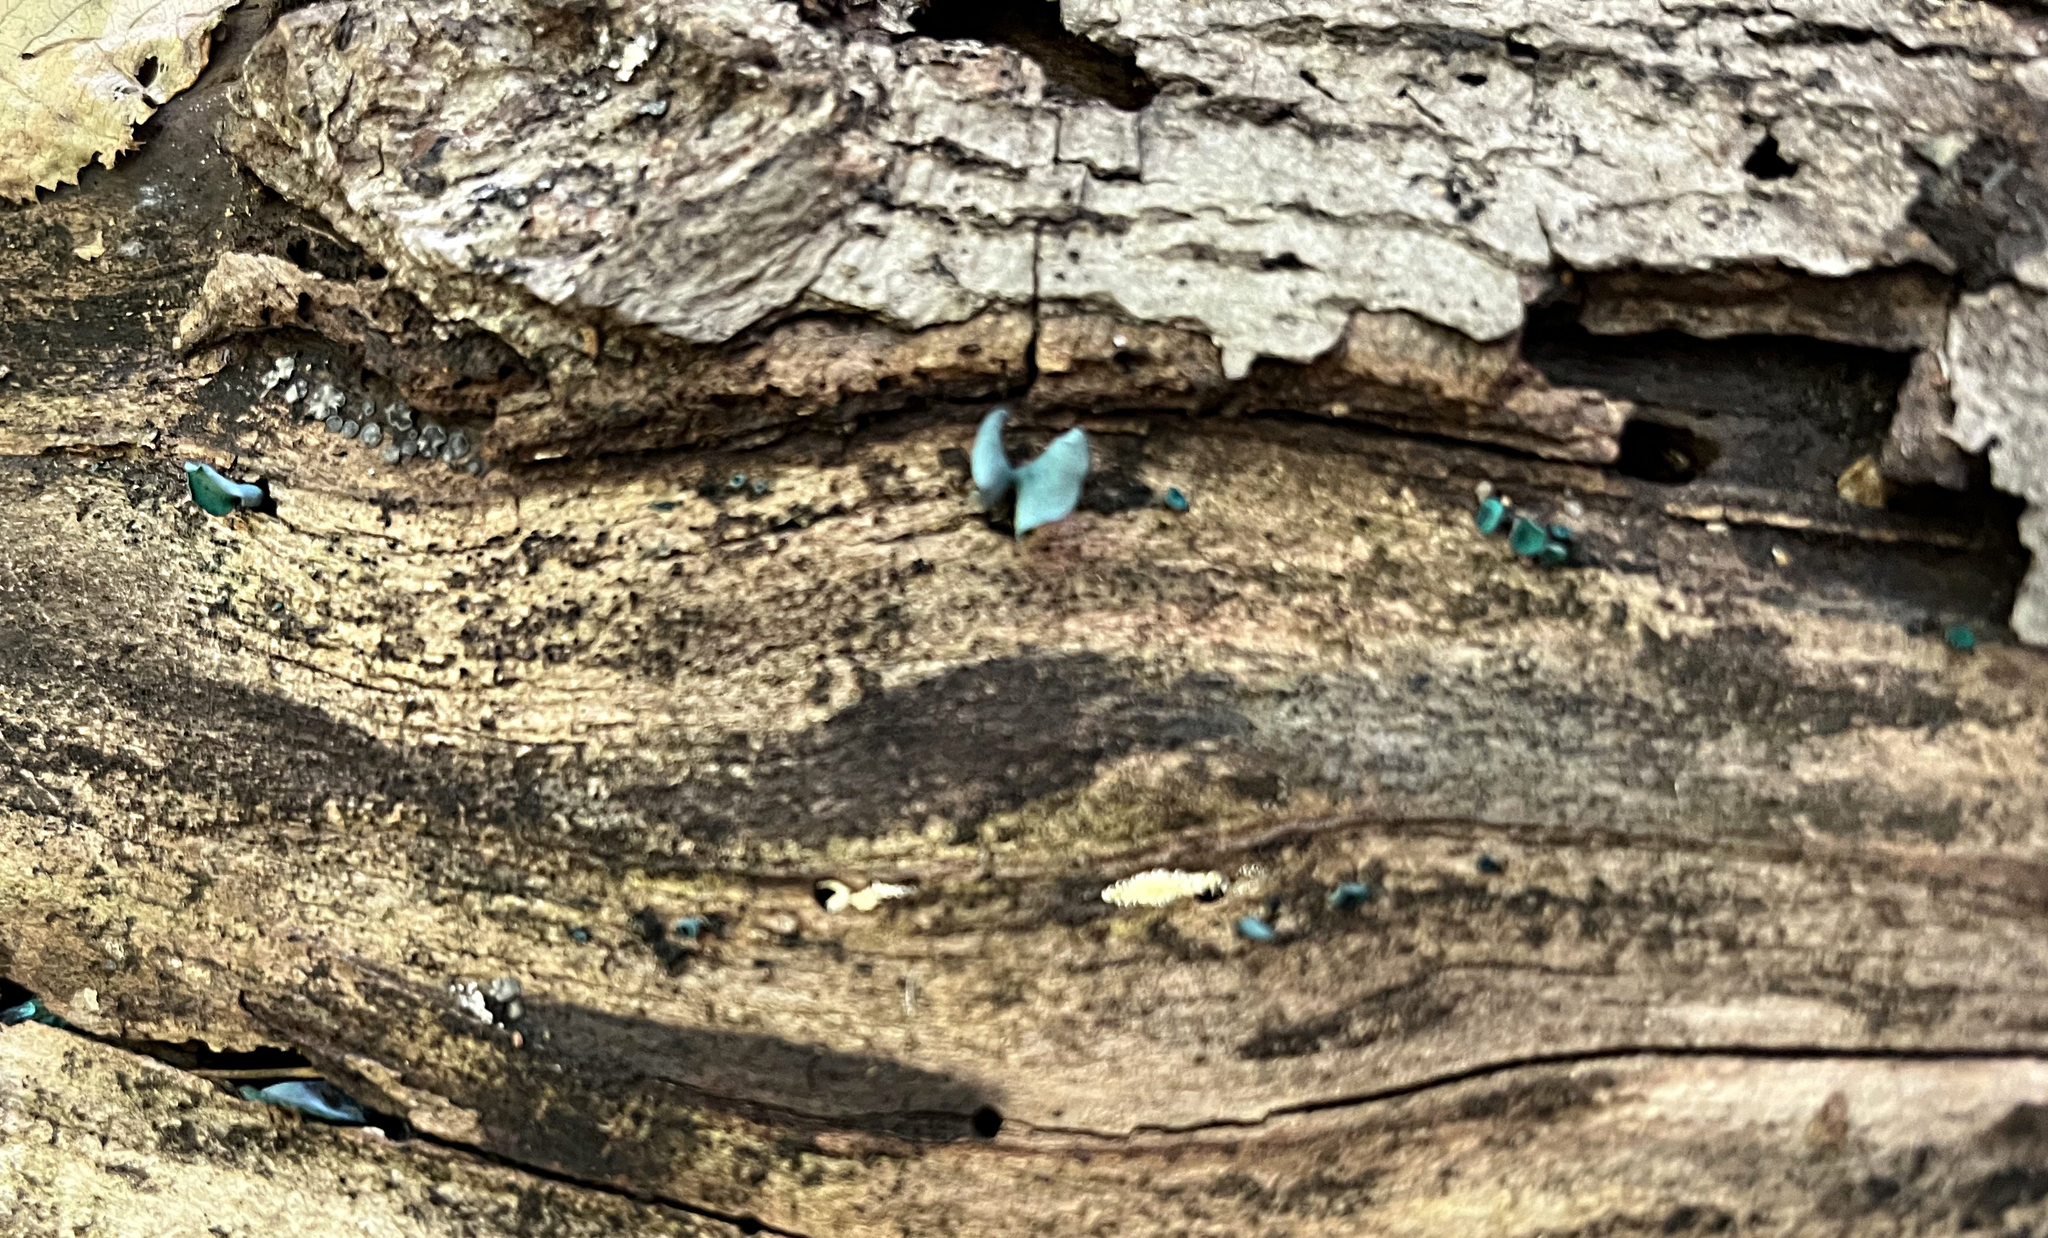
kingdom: Fungi
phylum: Ascomycota
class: Leotiomycetes
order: Helotiales
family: Chlorociboriaceae
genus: Chlorociboria
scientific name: Chlorociboria aeruginascens
